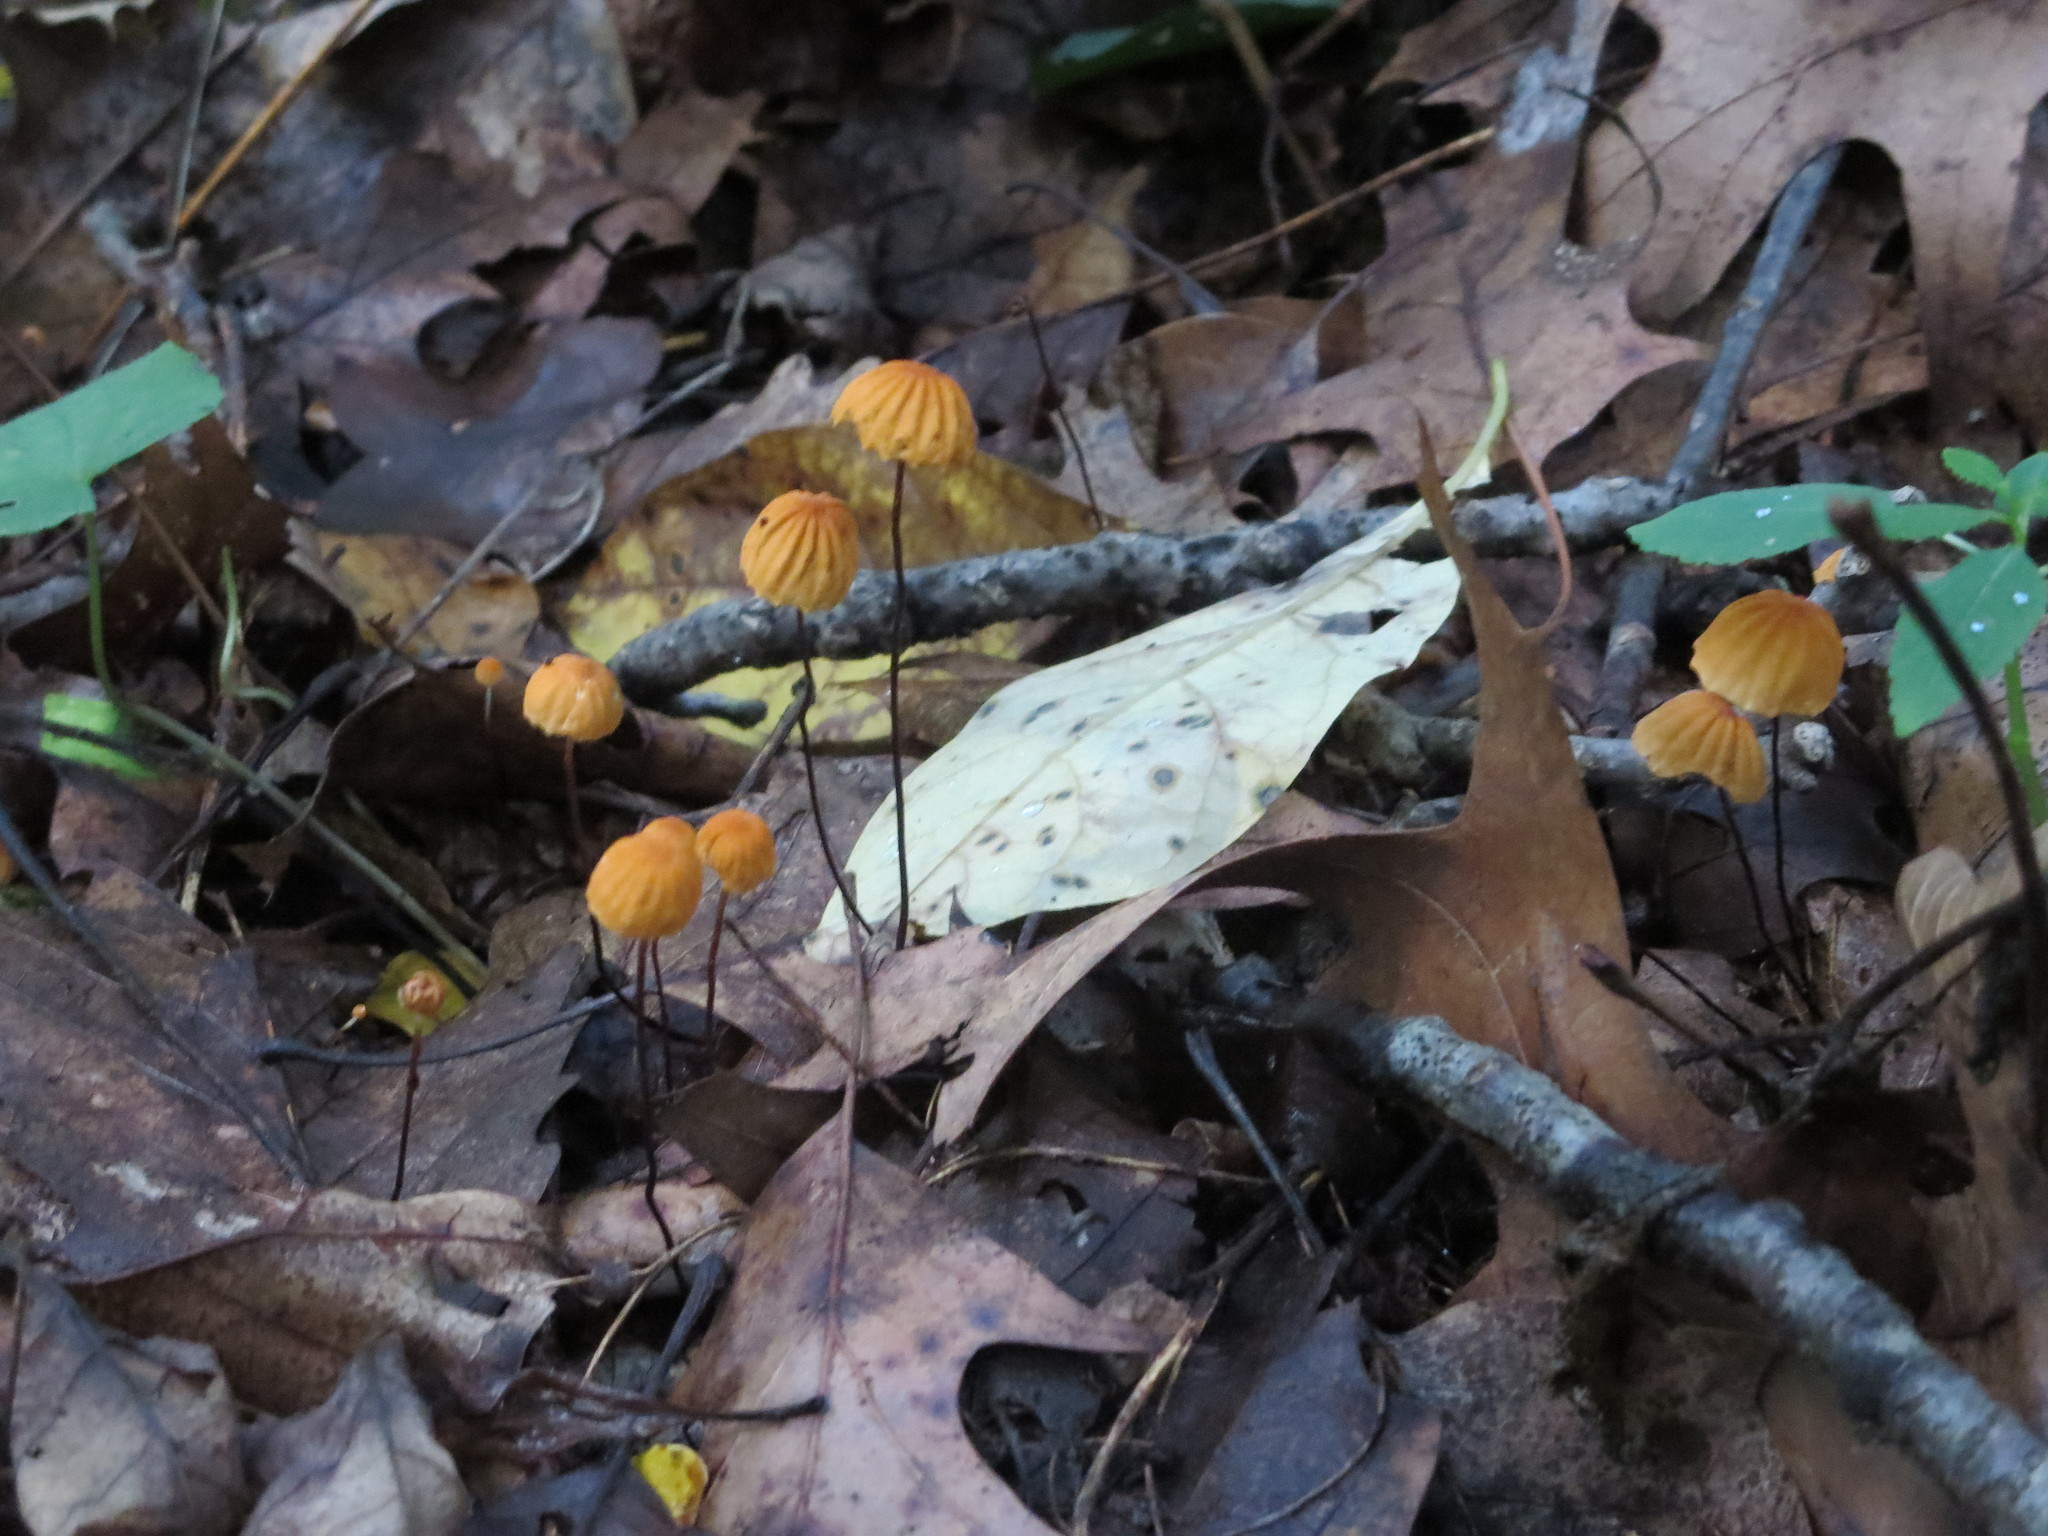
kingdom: Fungi
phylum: Basidiomycota
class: Agaricomycetes
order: Agaricales
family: Marasmiaceae
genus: Marasmius
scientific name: Marasmius siccus
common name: Orange pinwheel
